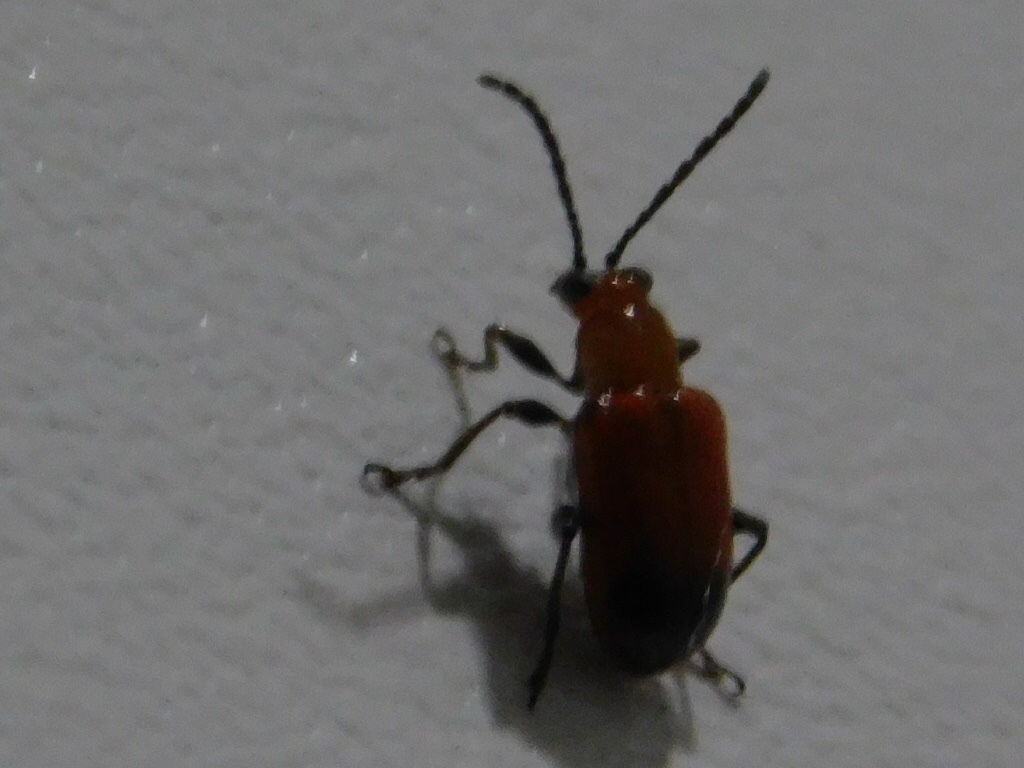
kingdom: Animalia
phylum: Arthropoda
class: Insecta
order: Coleoptera
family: Chrysomelidae
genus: Neolema
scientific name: Neolema
